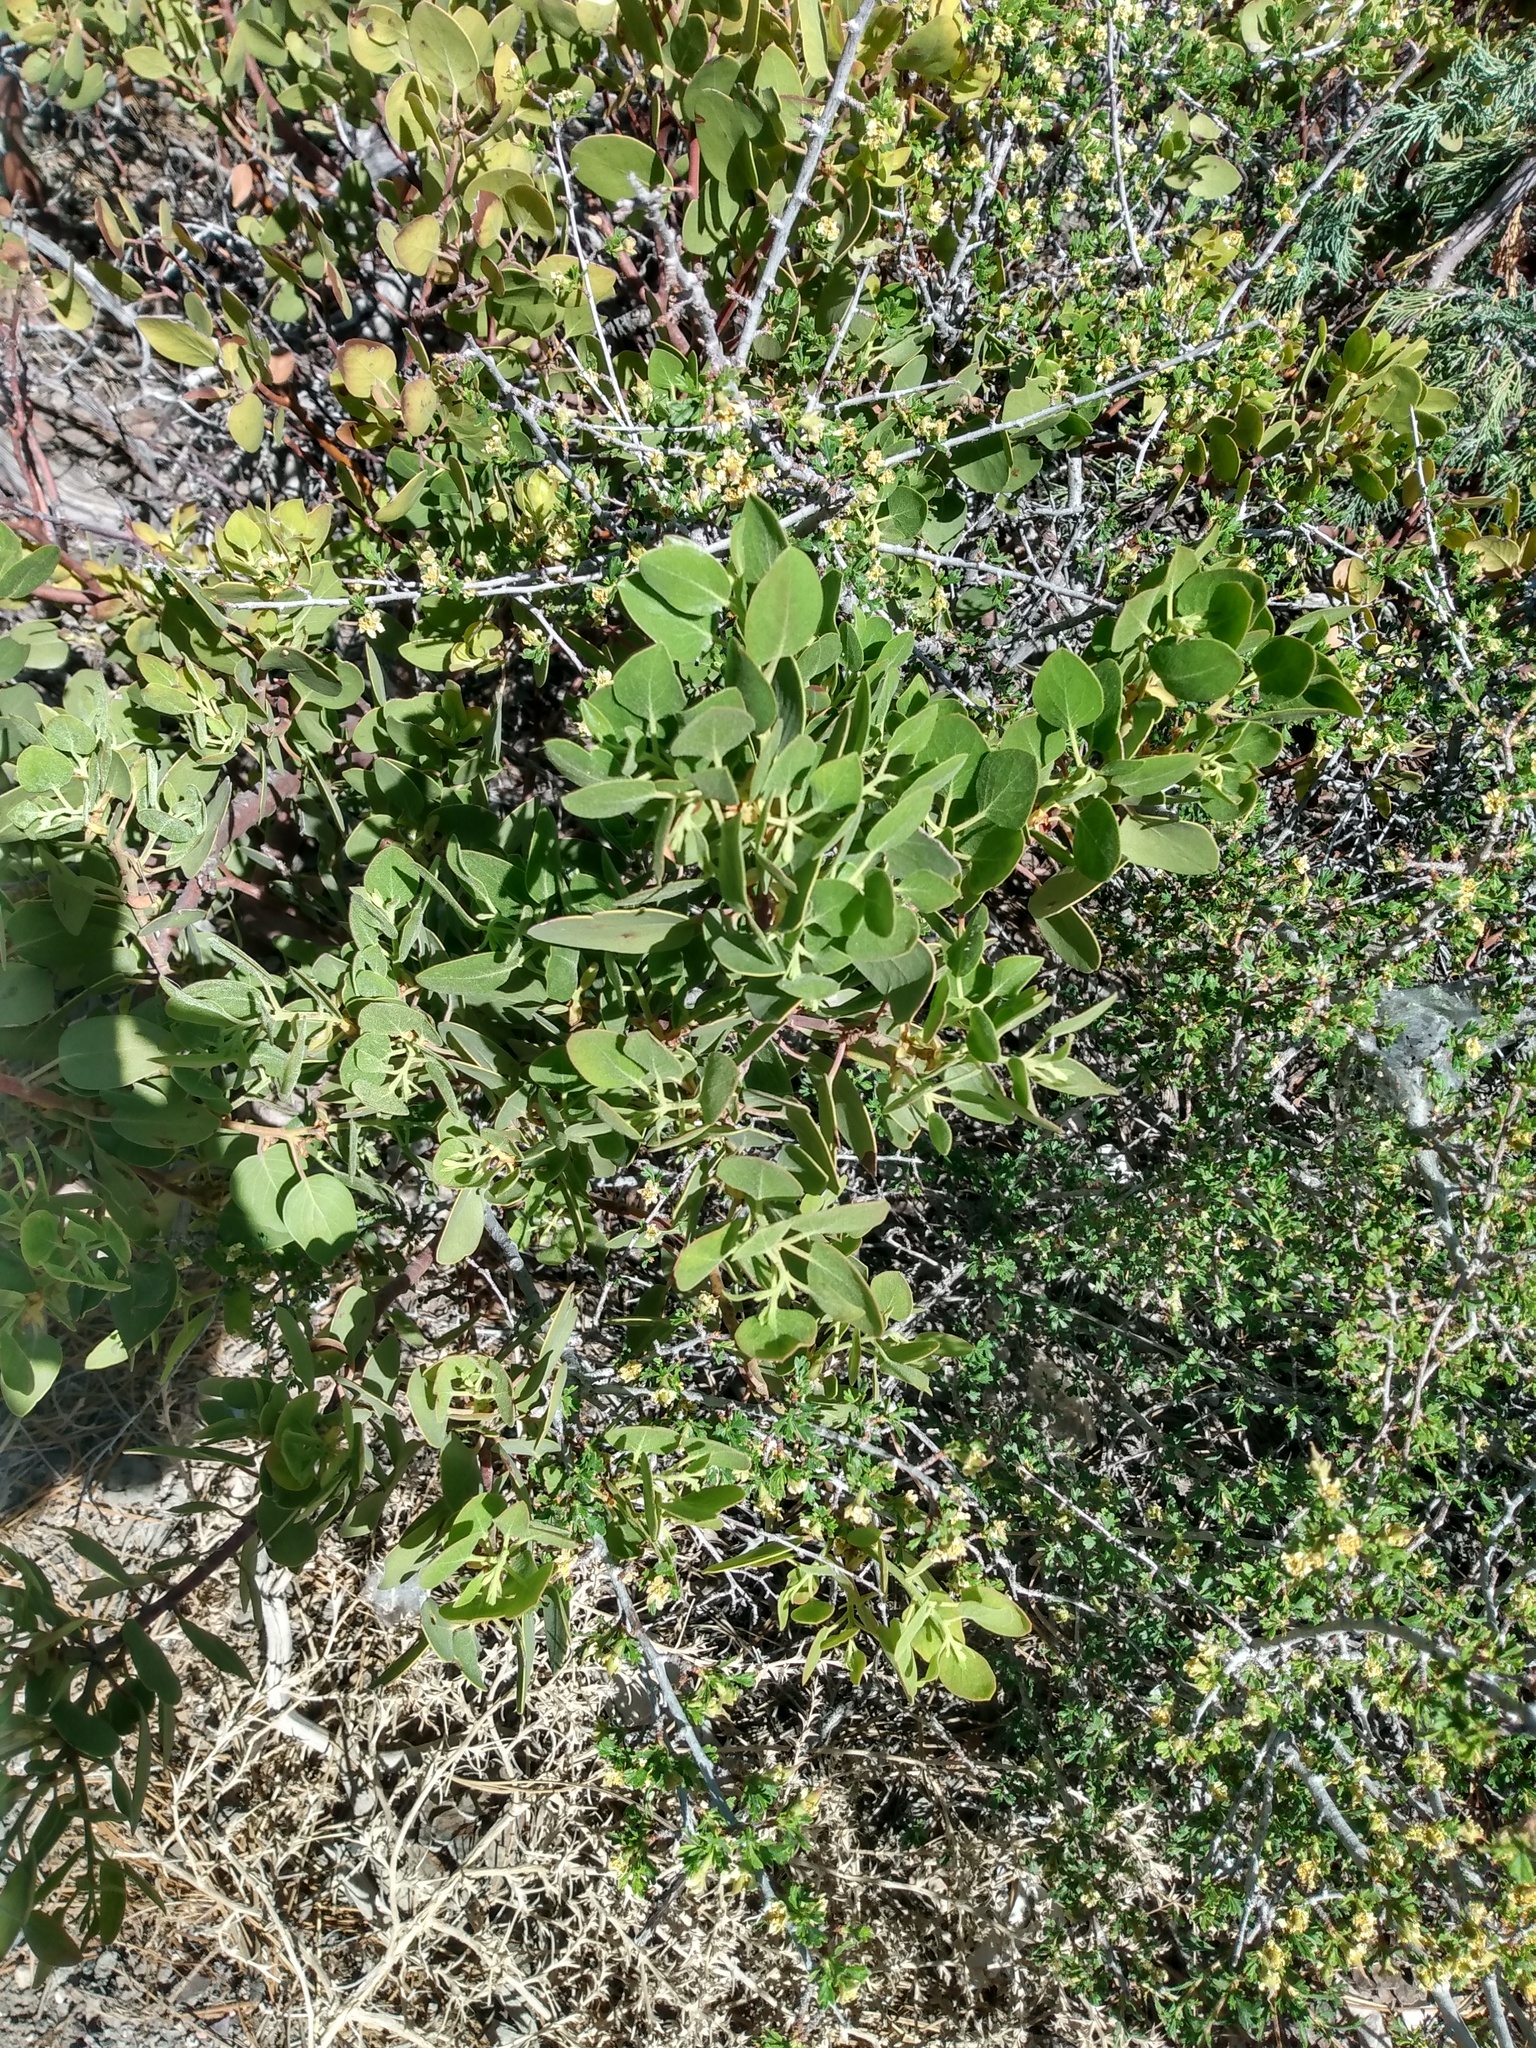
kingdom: Plantae
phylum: Tracheophyta
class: Magnoliopsida
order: Ericales
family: Ericaceae
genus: Arctostaphylos
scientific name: Arctostaphylos patula
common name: Green-leaf manzanita
